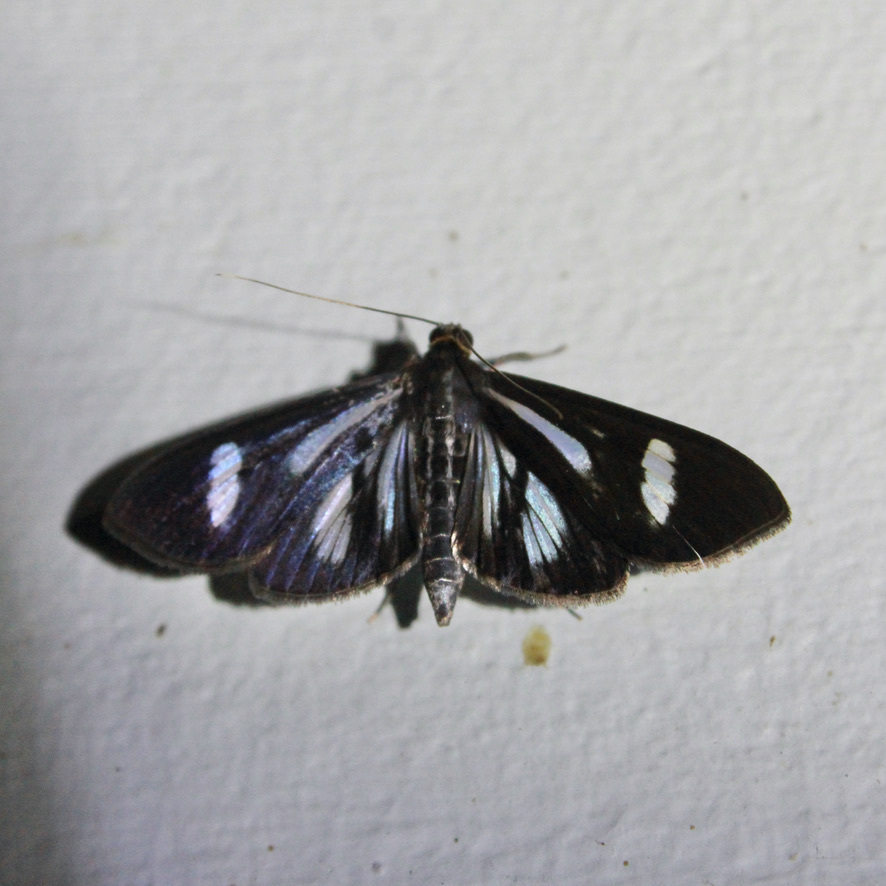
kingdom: Animalia
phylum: Arthropoda
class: Insecta
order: Lepidoptera
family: Crambidae
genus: Phostria
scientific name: Phostria euagra
